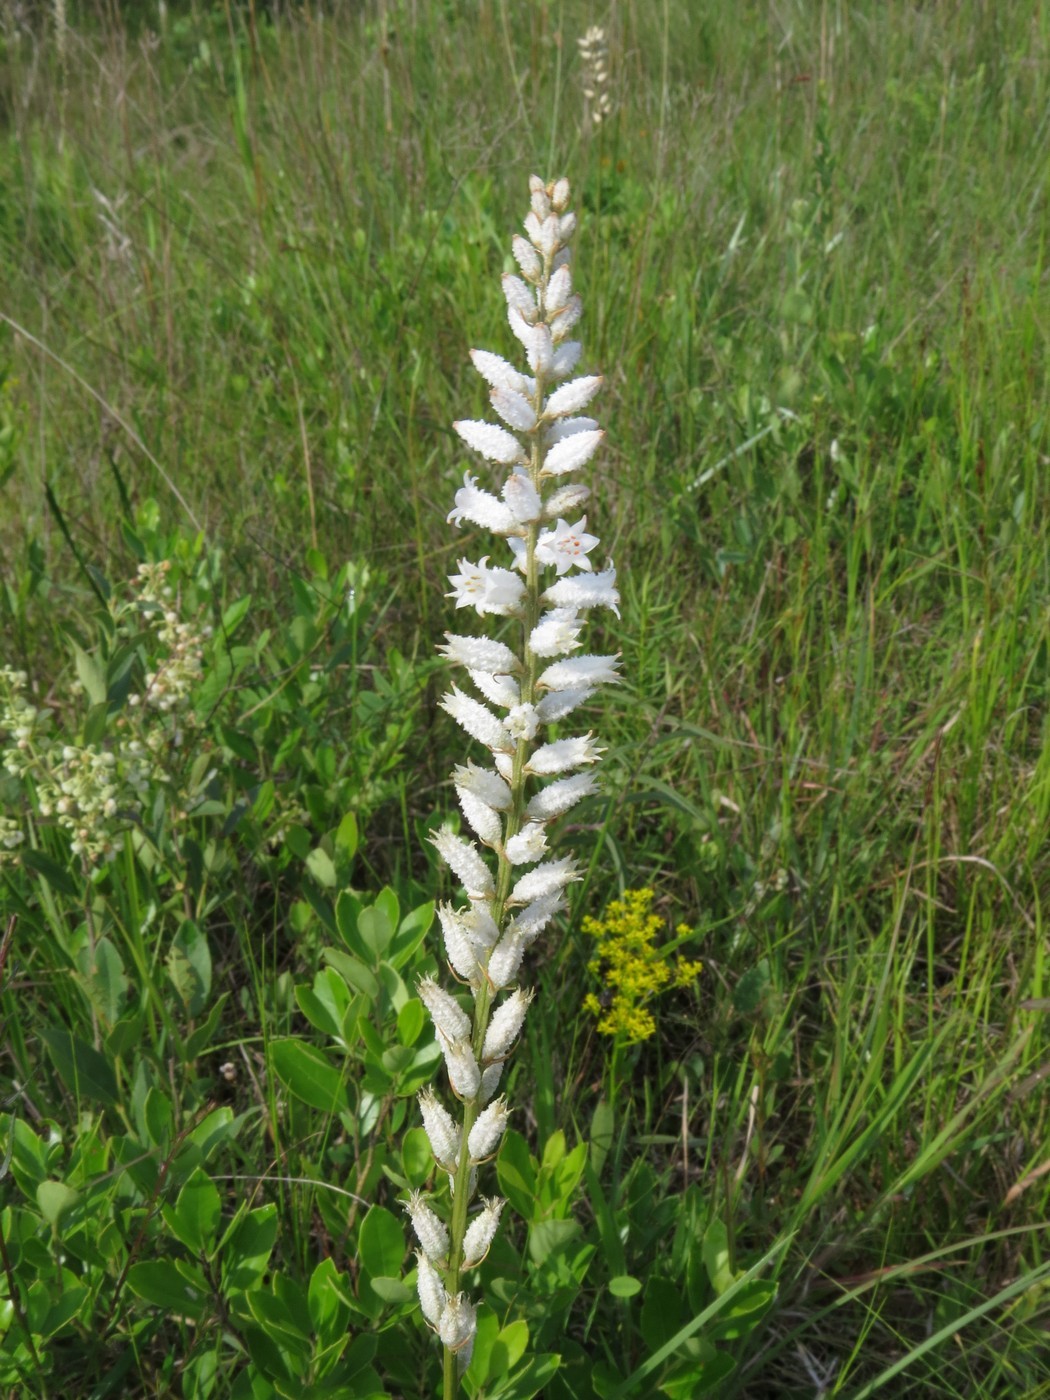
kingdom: Plantae
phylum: Tracheophyta
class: Liliopsida
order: Dioscoreales
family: Nartheciaceae
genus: Aletris
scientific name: Aletris farinosa
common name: Colicroot
